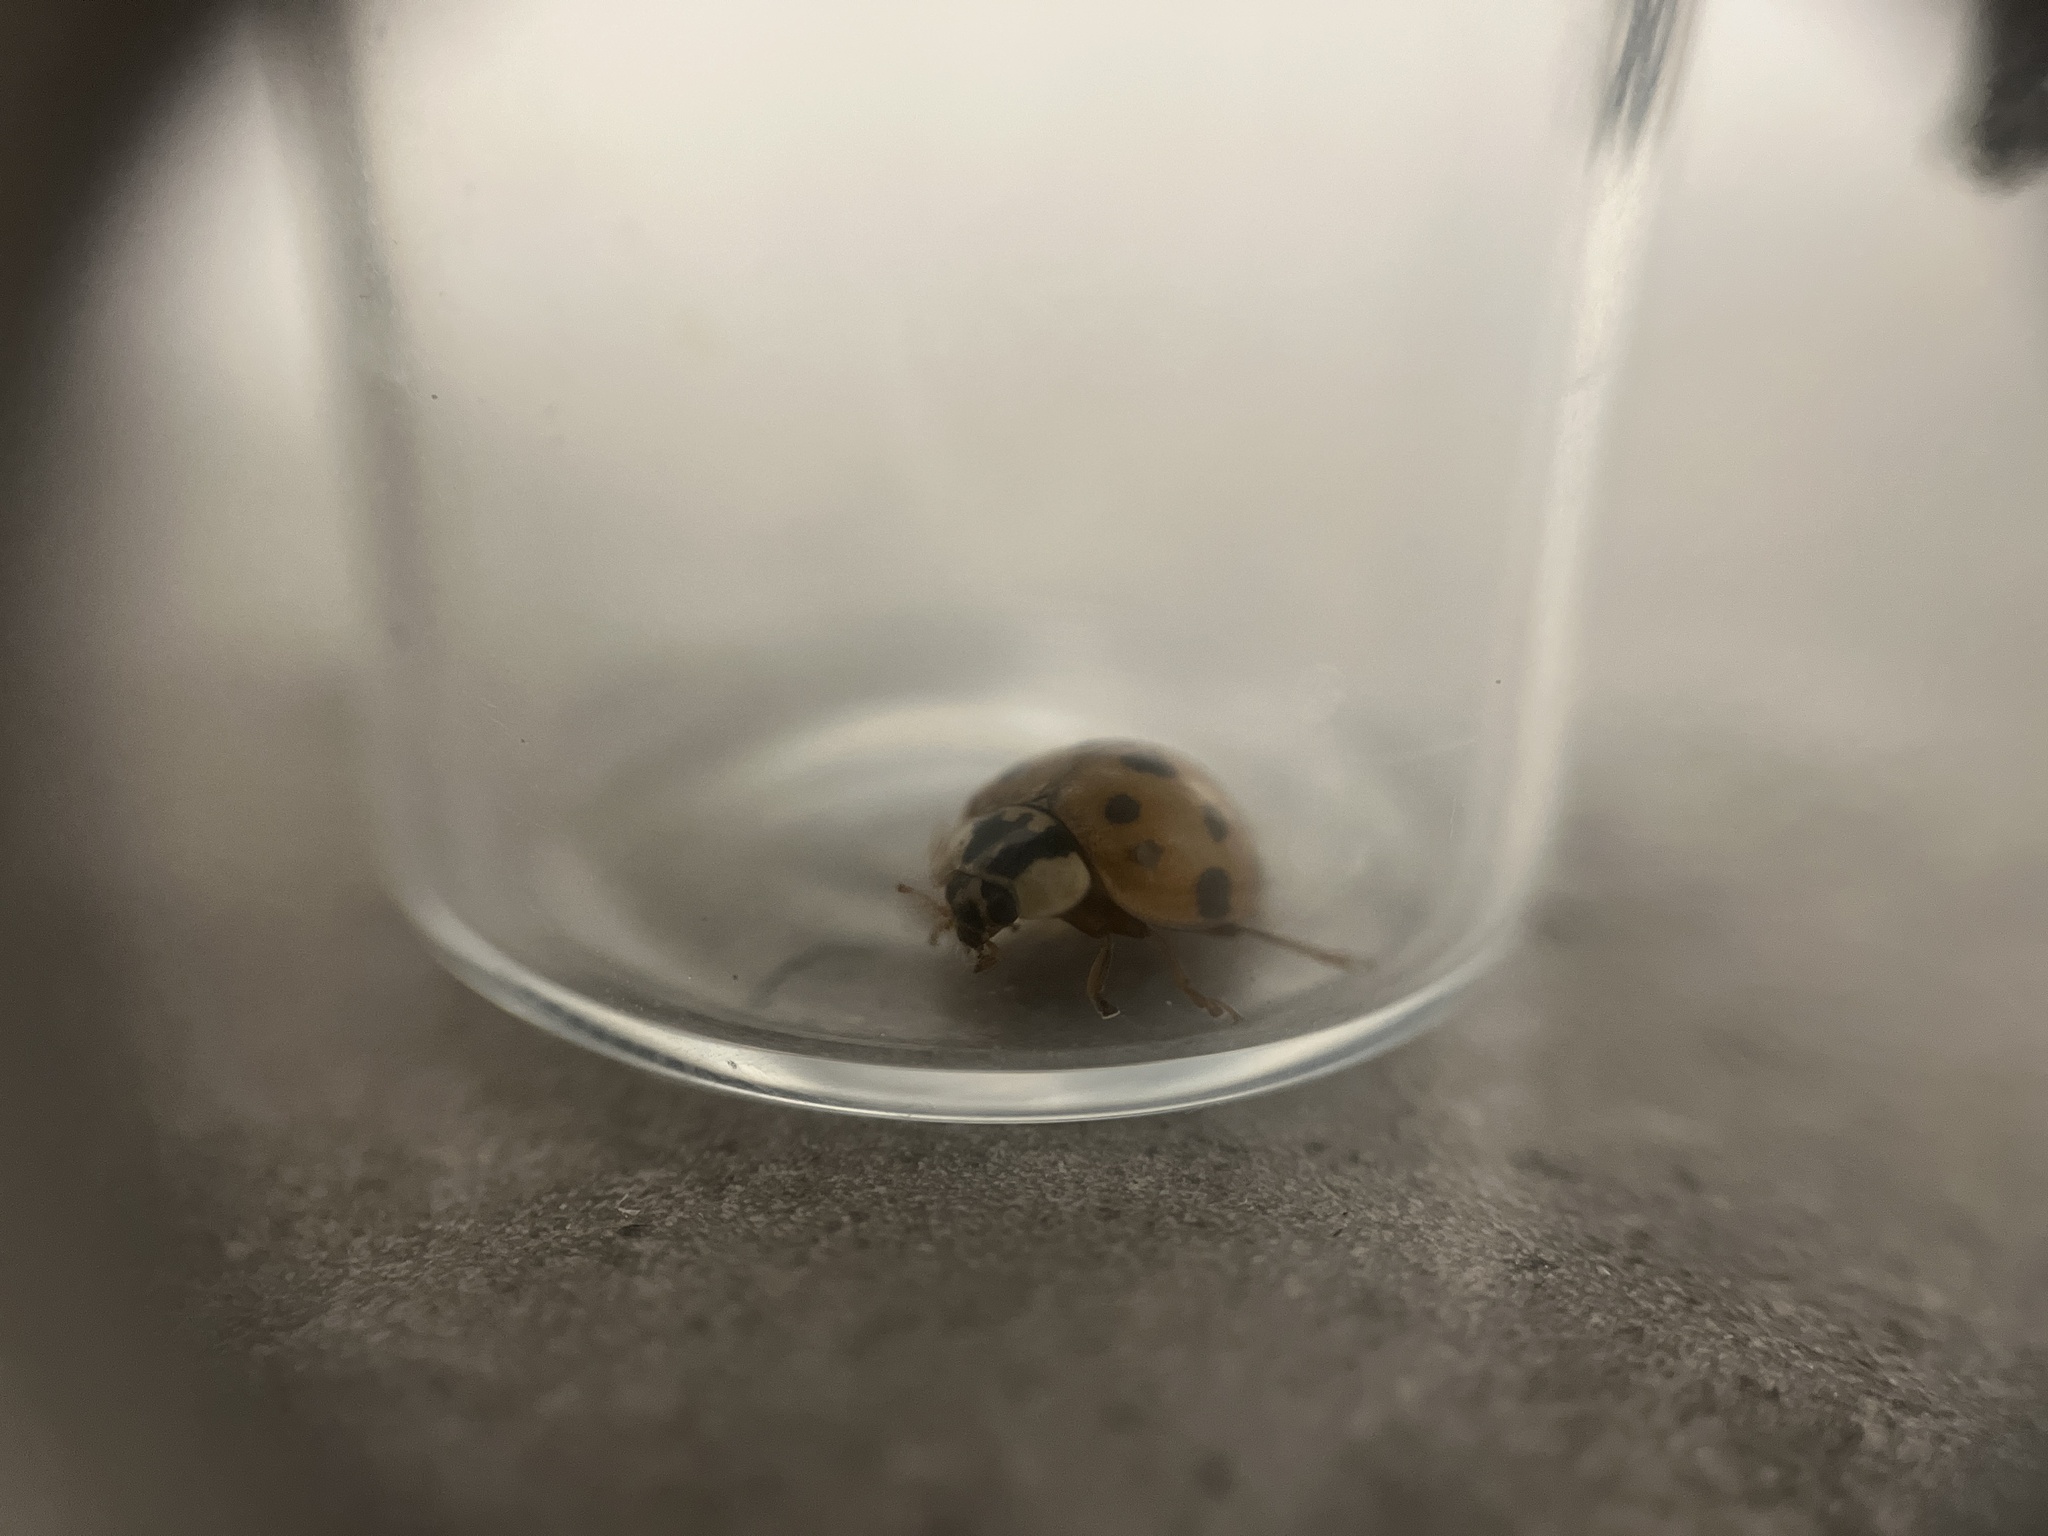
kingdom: Animalia
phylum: Arthropoda
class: Insecta
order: Coleoptera
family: Coccinellidae
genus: Harmonia
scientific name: Harmonia axyridis
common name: Harlequin ladybird
